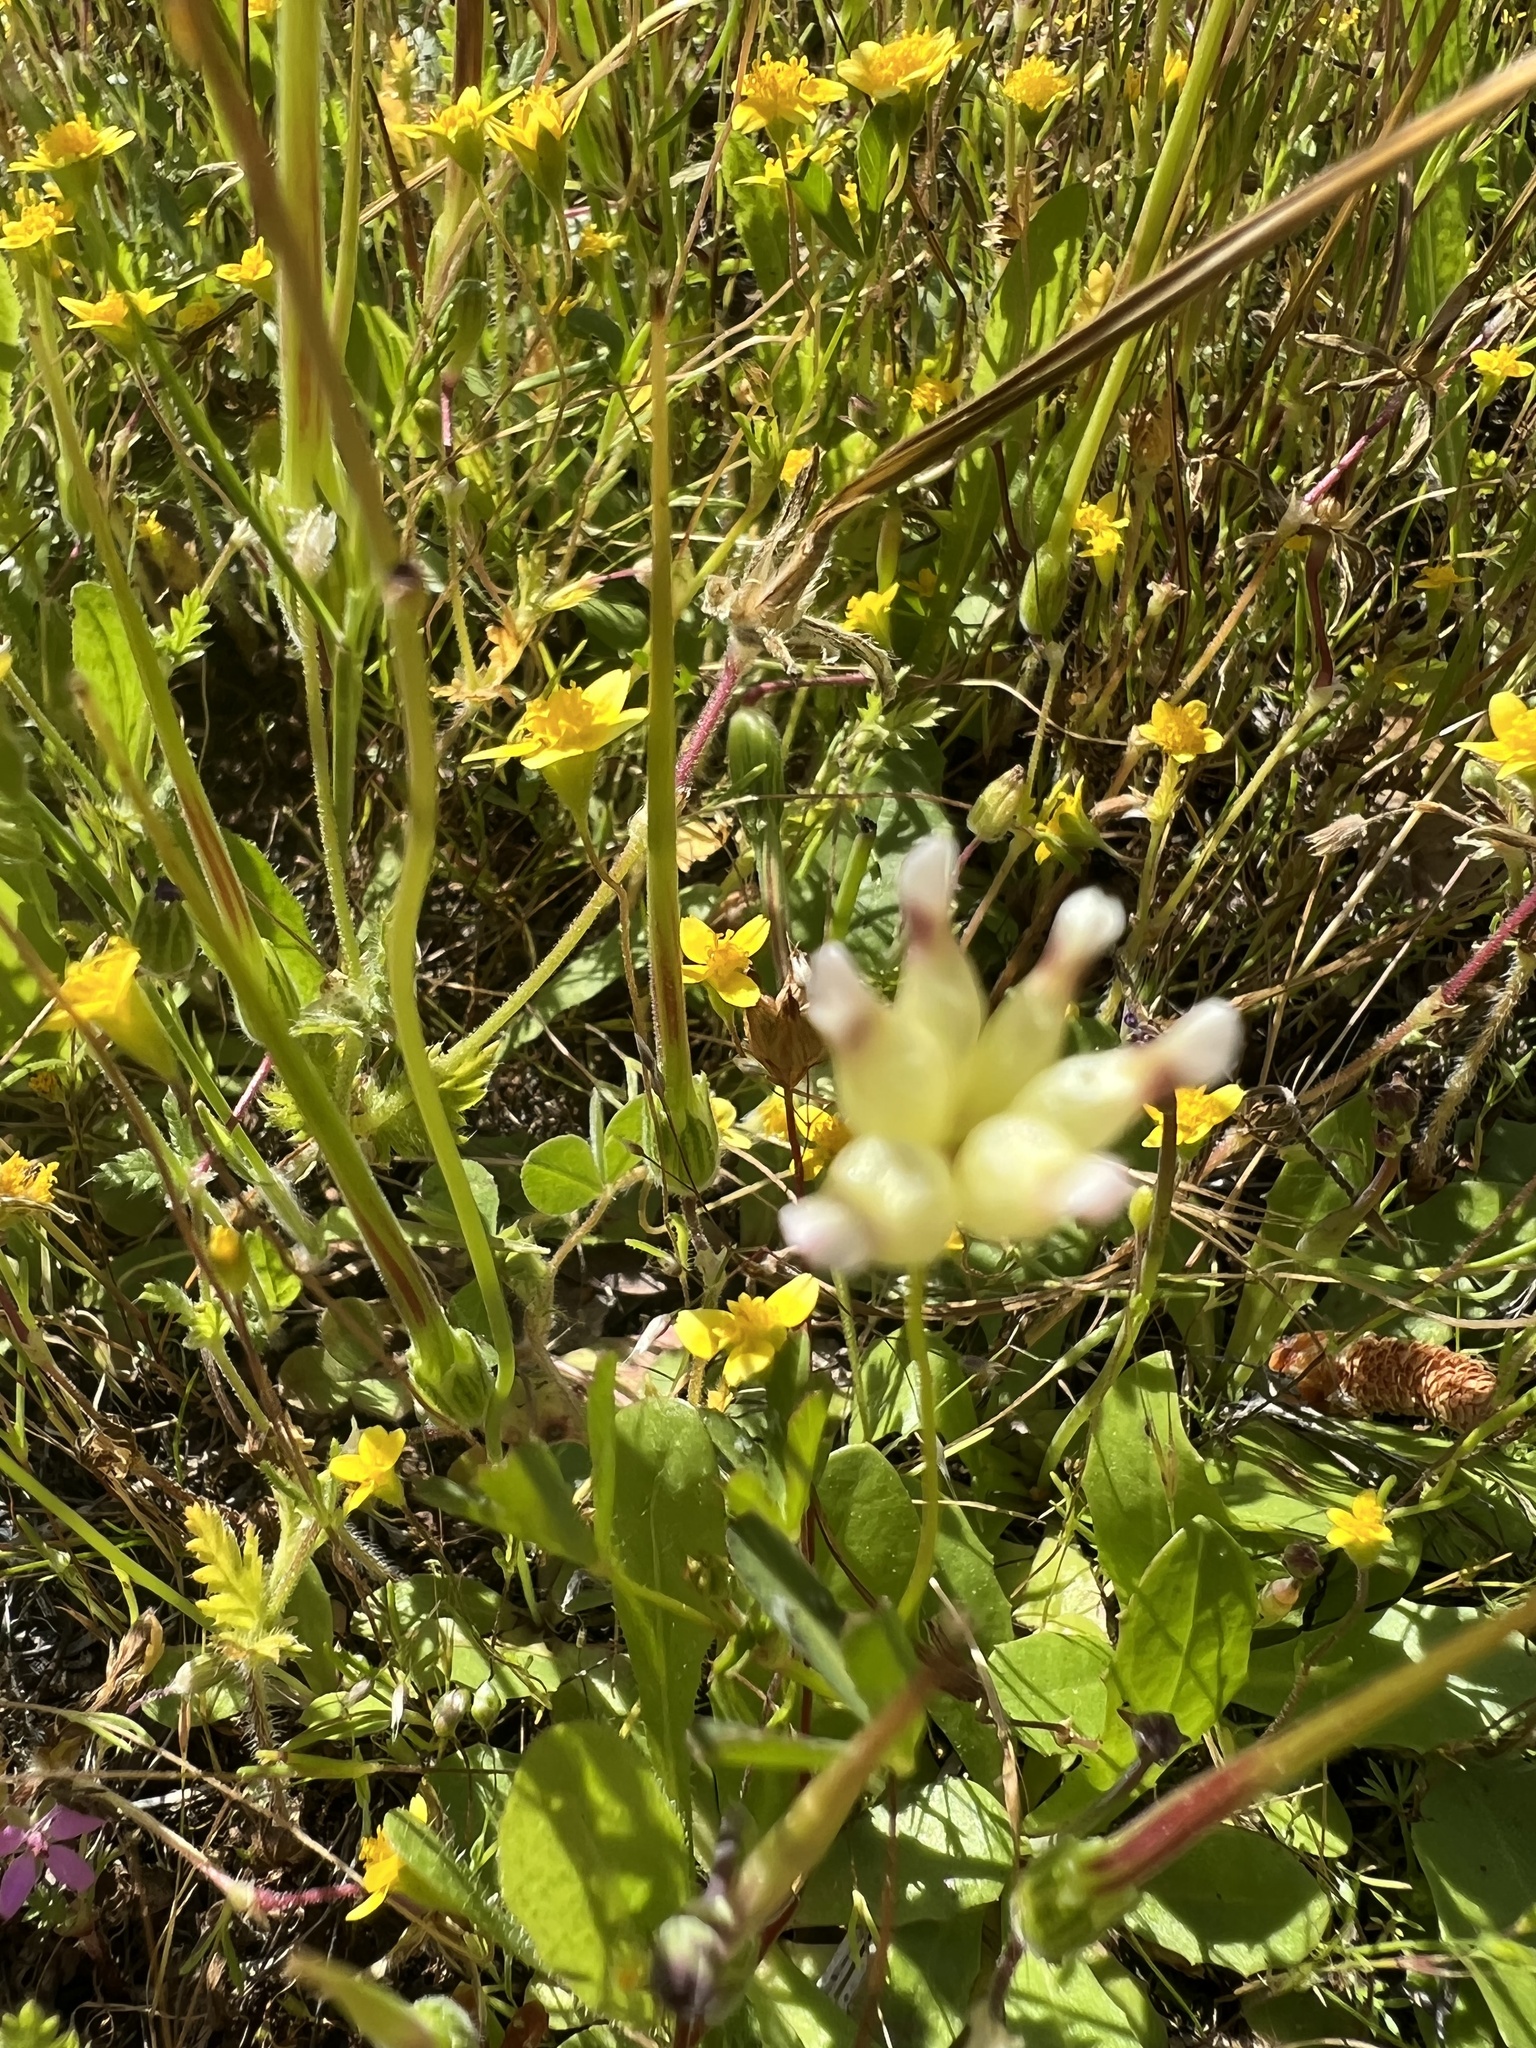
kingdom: Plantae
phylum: Tracheophyta
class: Magnoliopsida
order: Fabales
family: Fabaceae
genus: Trifolium
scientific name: Trifolium depauperatum
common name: Poverty clover
